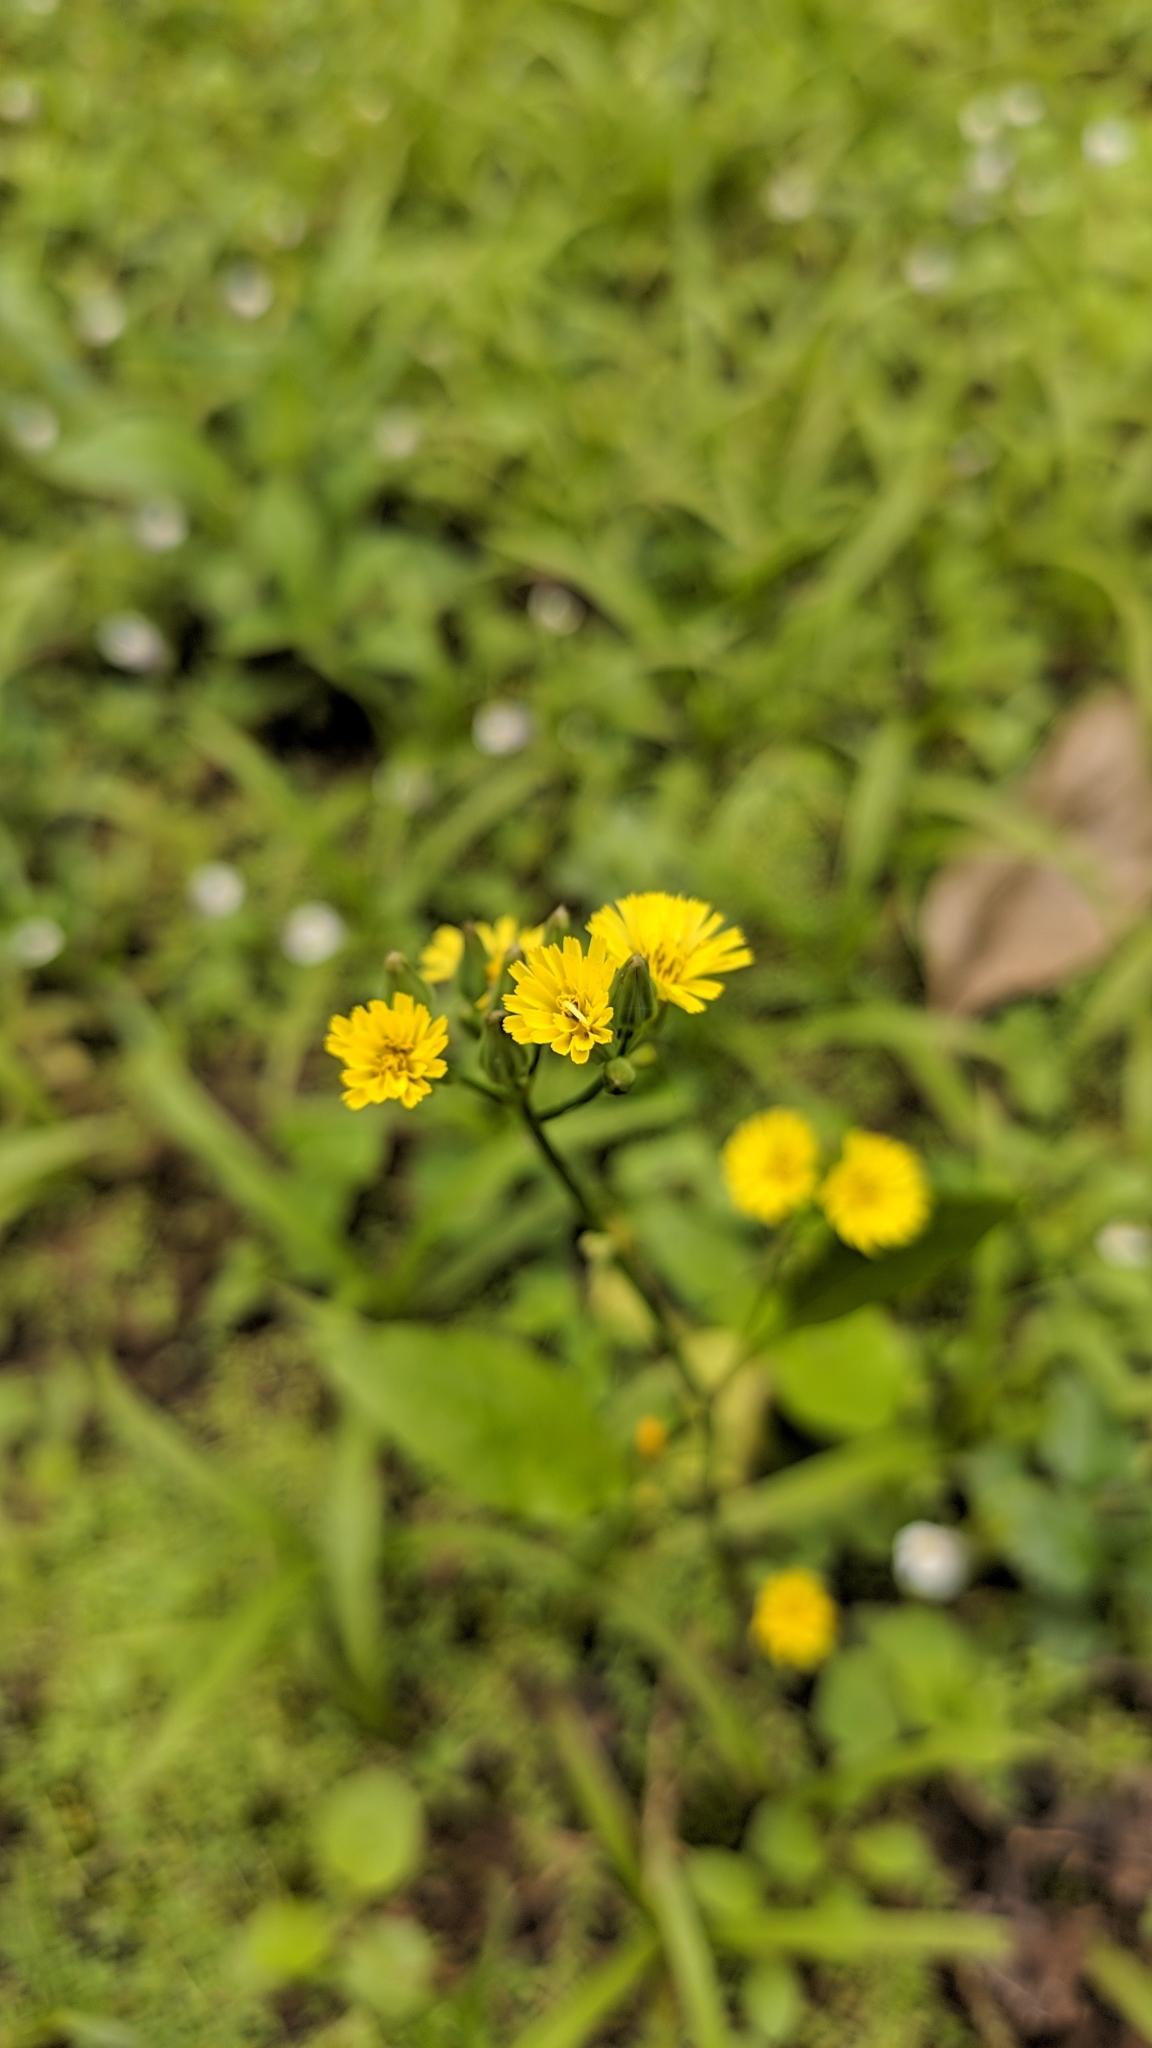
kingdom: Plantae
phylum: Tracheophyta
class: Magnoliopsida
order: Asterales
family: Asteraceae
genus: Youngia
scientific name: Youngia japonica
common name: Oriental false hawksbeard
